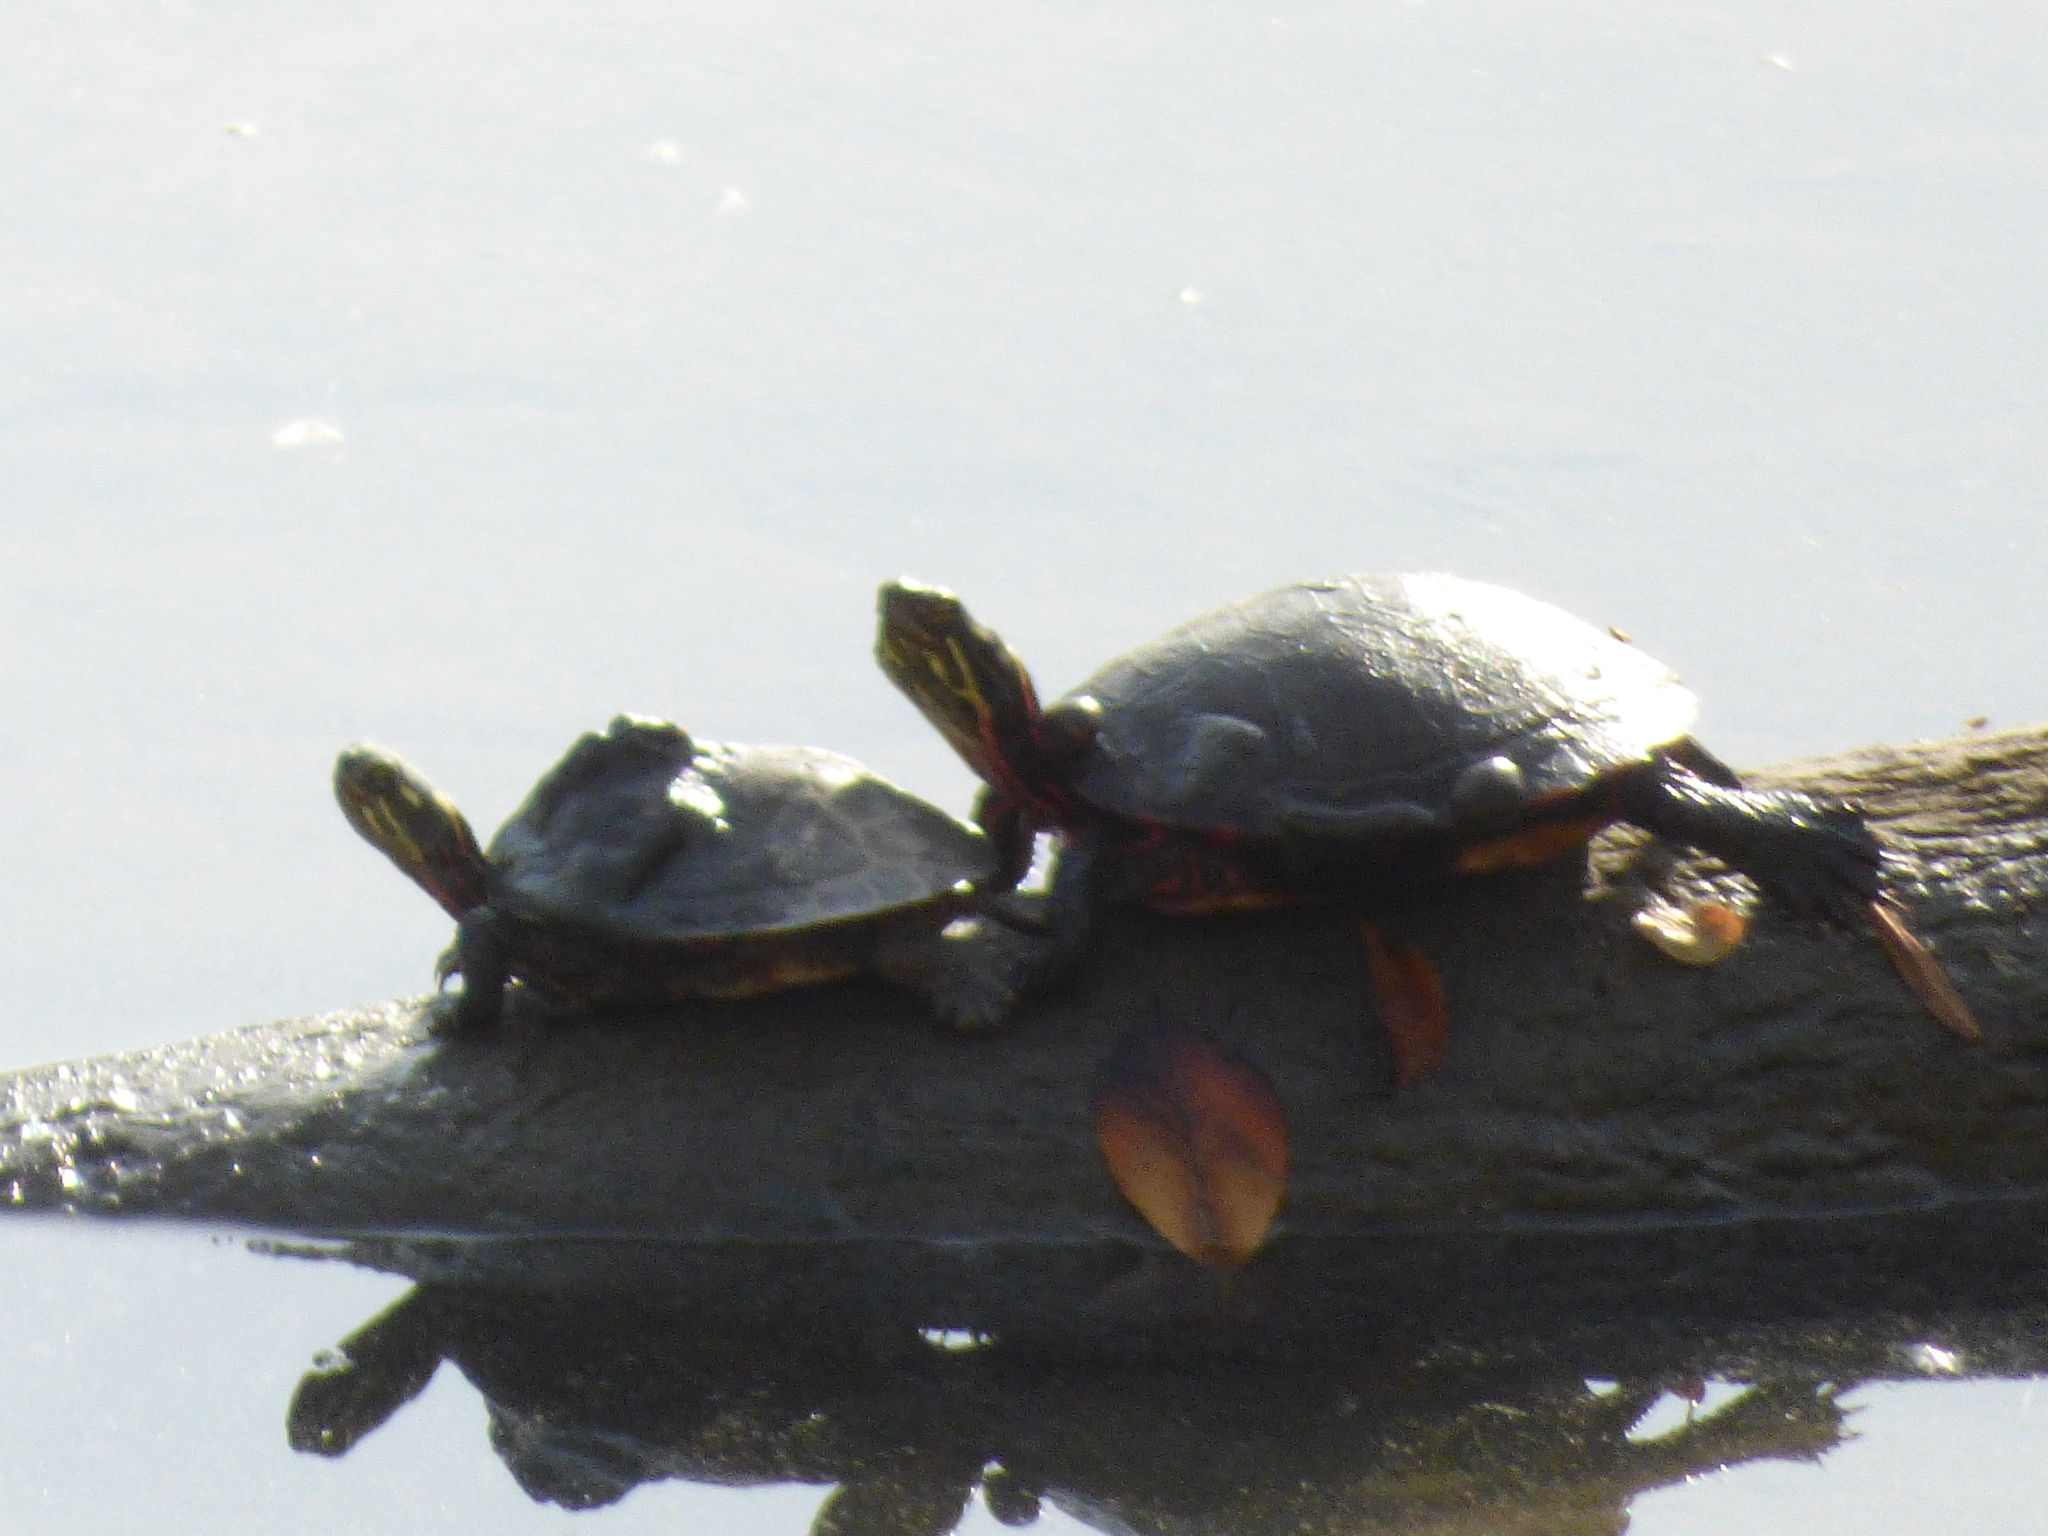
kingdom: Animalia
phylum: Chordata
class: Testudines
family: Emydidae
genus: Chrysemys
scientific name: Chrysemys picta
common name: Painted turtle
